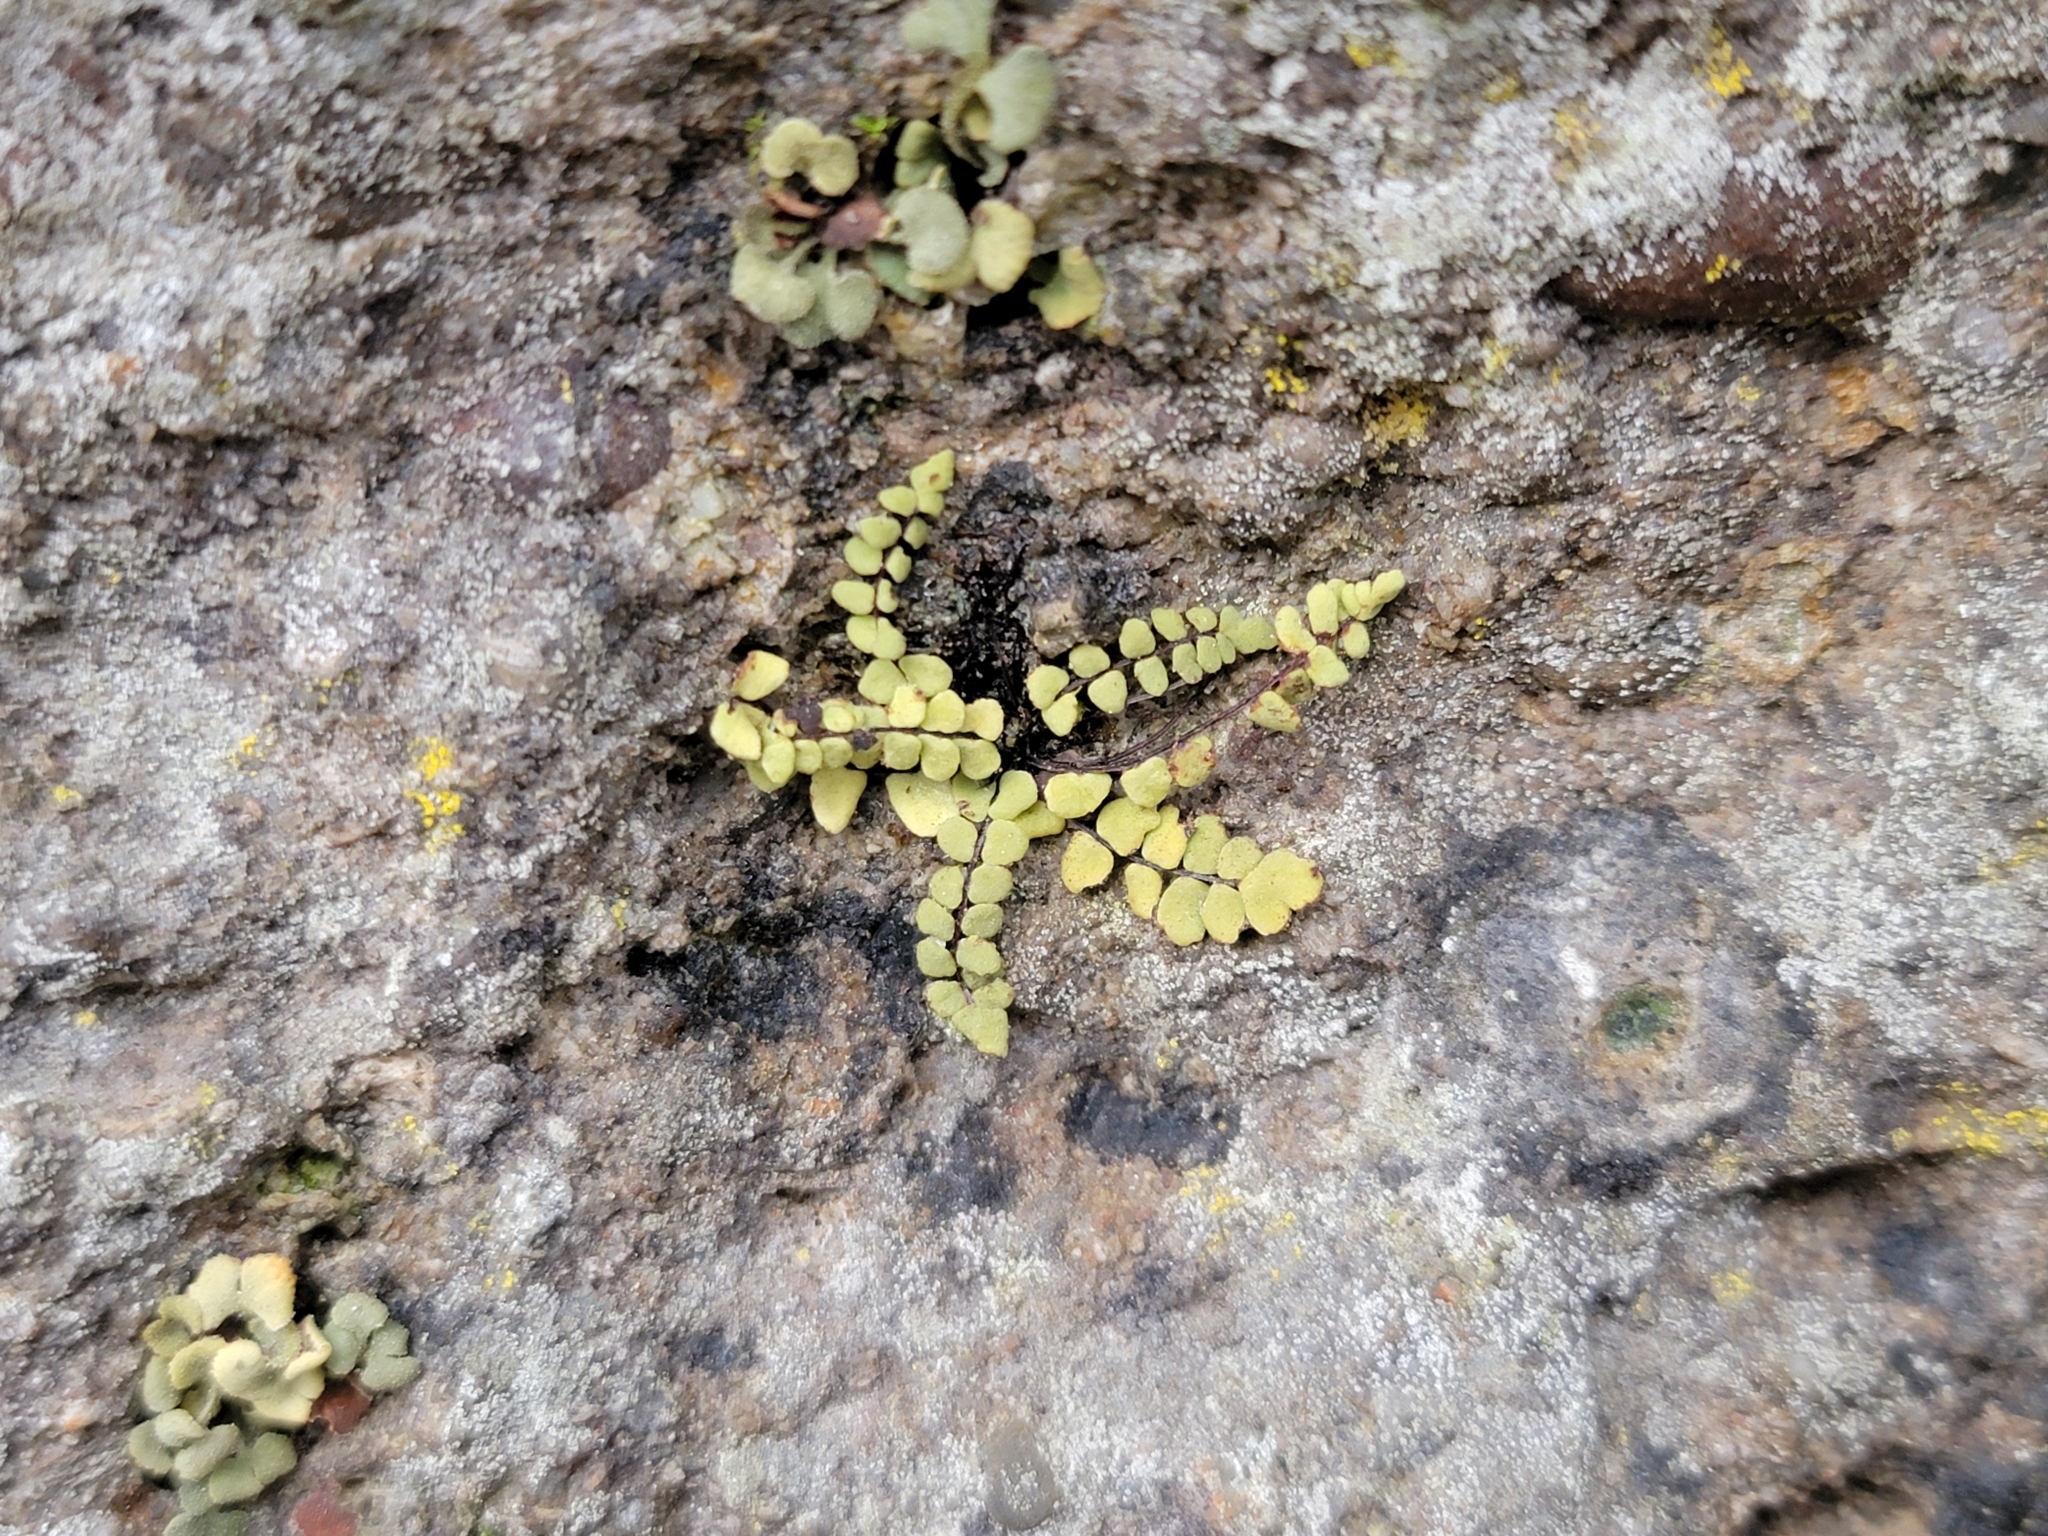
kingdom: Plantae
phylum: Tracheophyta
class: Polypodiopsida
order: Polypodiales
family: Aspleniaceae
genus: Asplenium
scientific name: Asplenium trichomanes
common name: Maidenhair spleenwort
